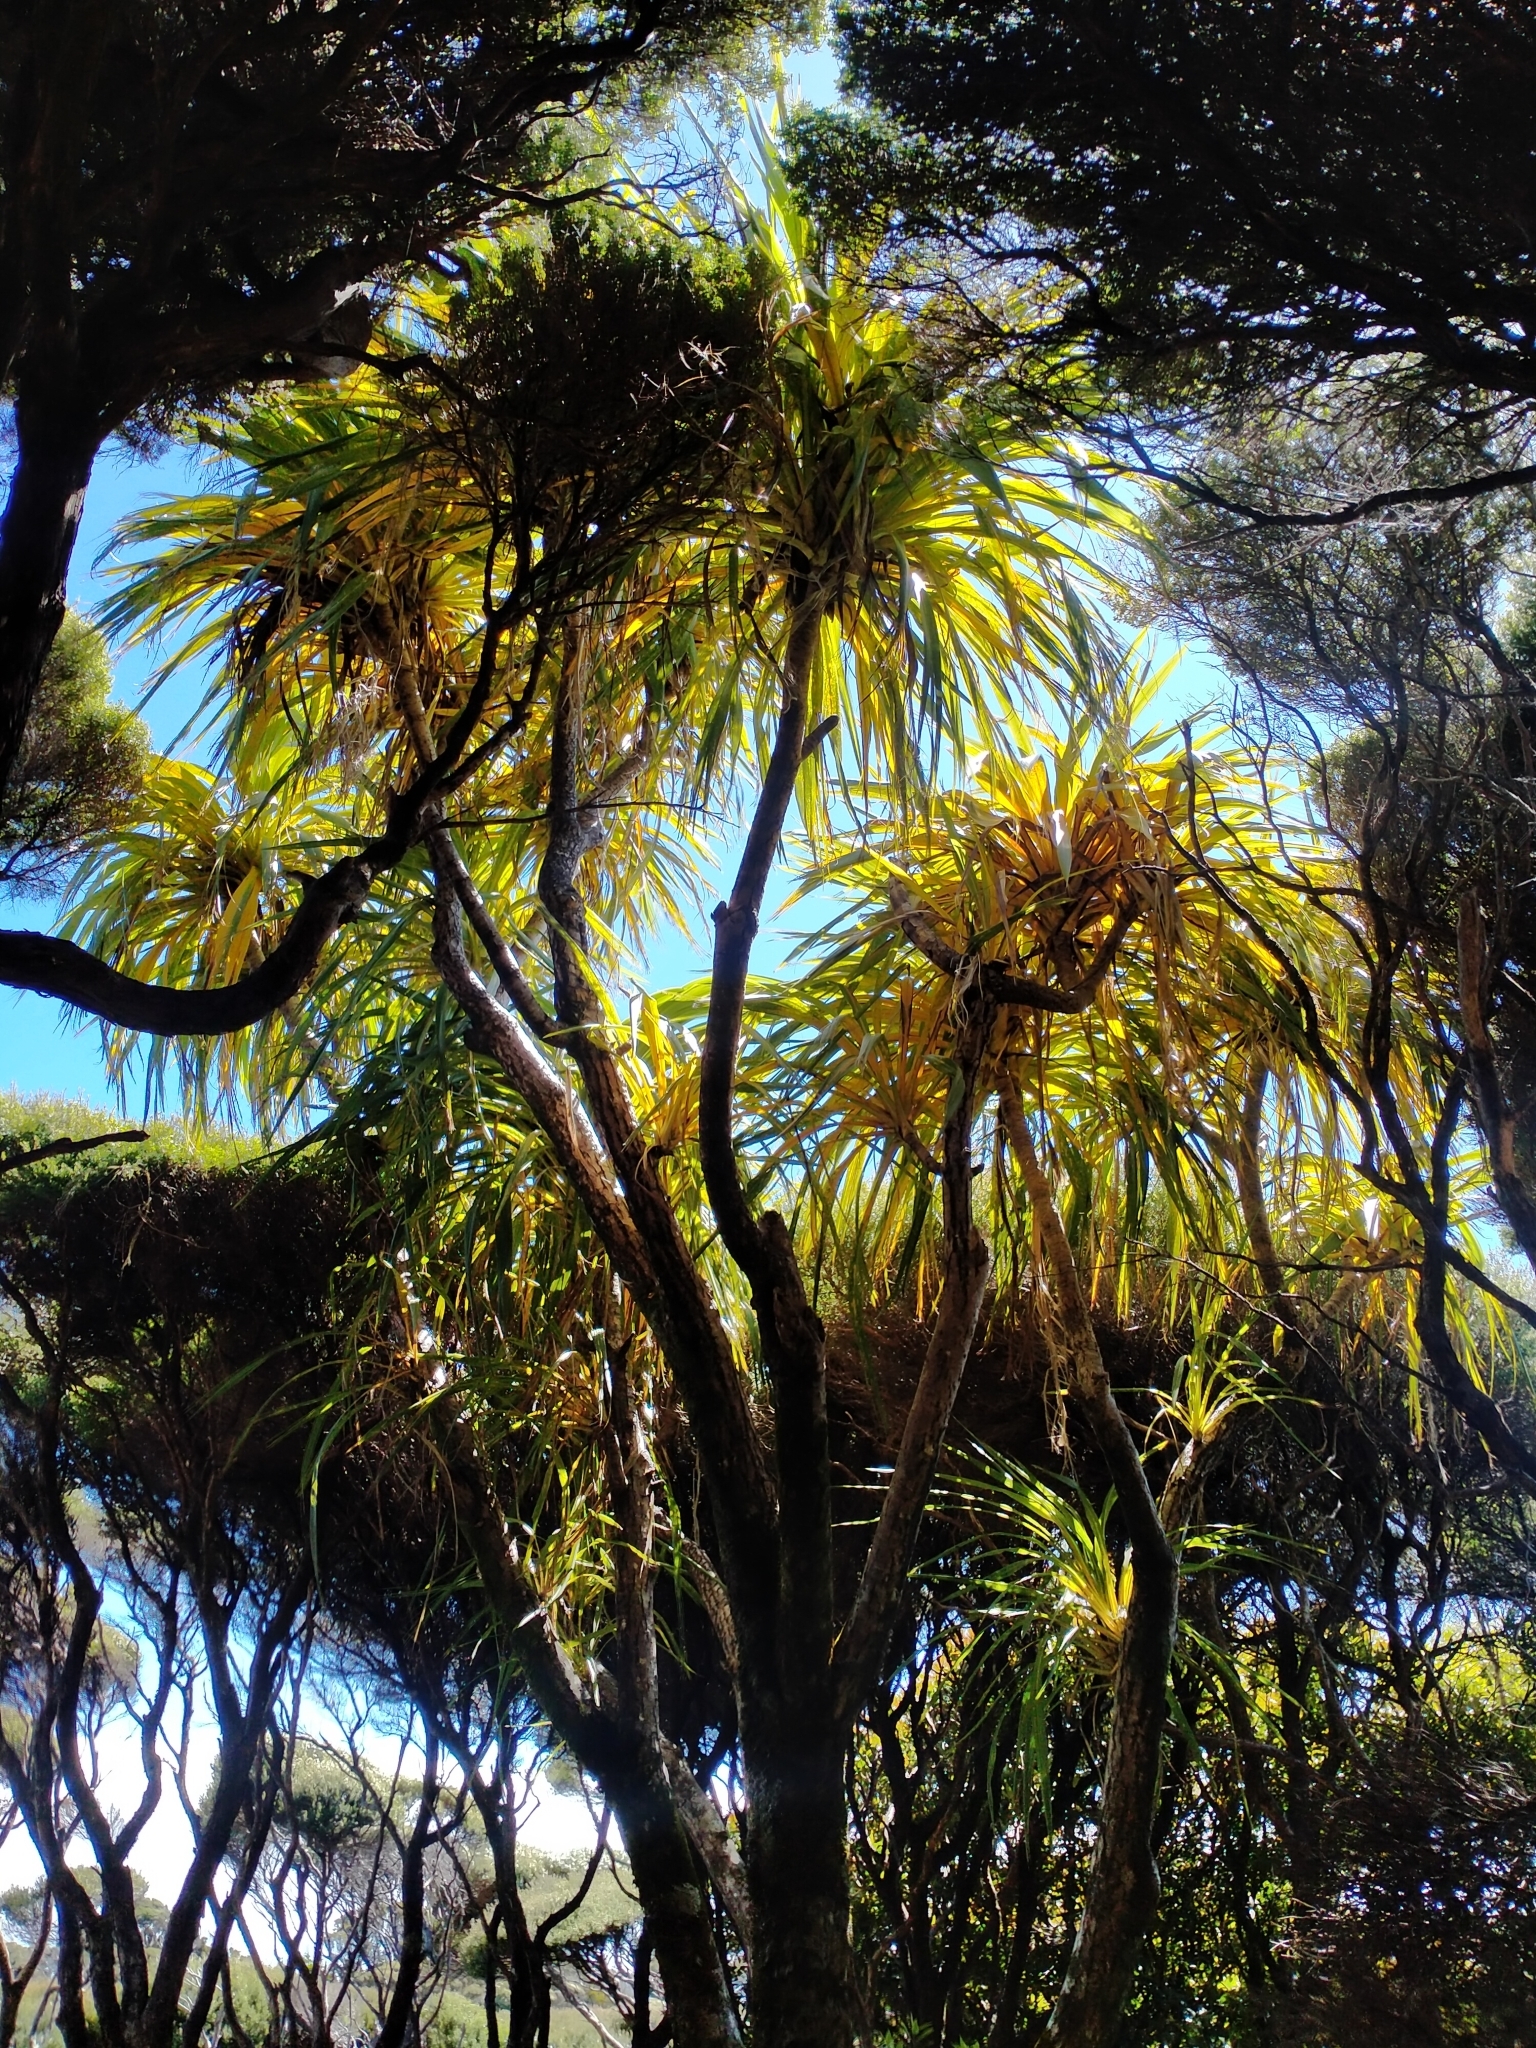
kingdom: Plantae
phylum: Tracheophyta
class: Liliopsida
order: Asparagales
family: Asparagaceae
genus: Cordyline
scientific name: Cordyline australis
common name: Cabbage-palm
